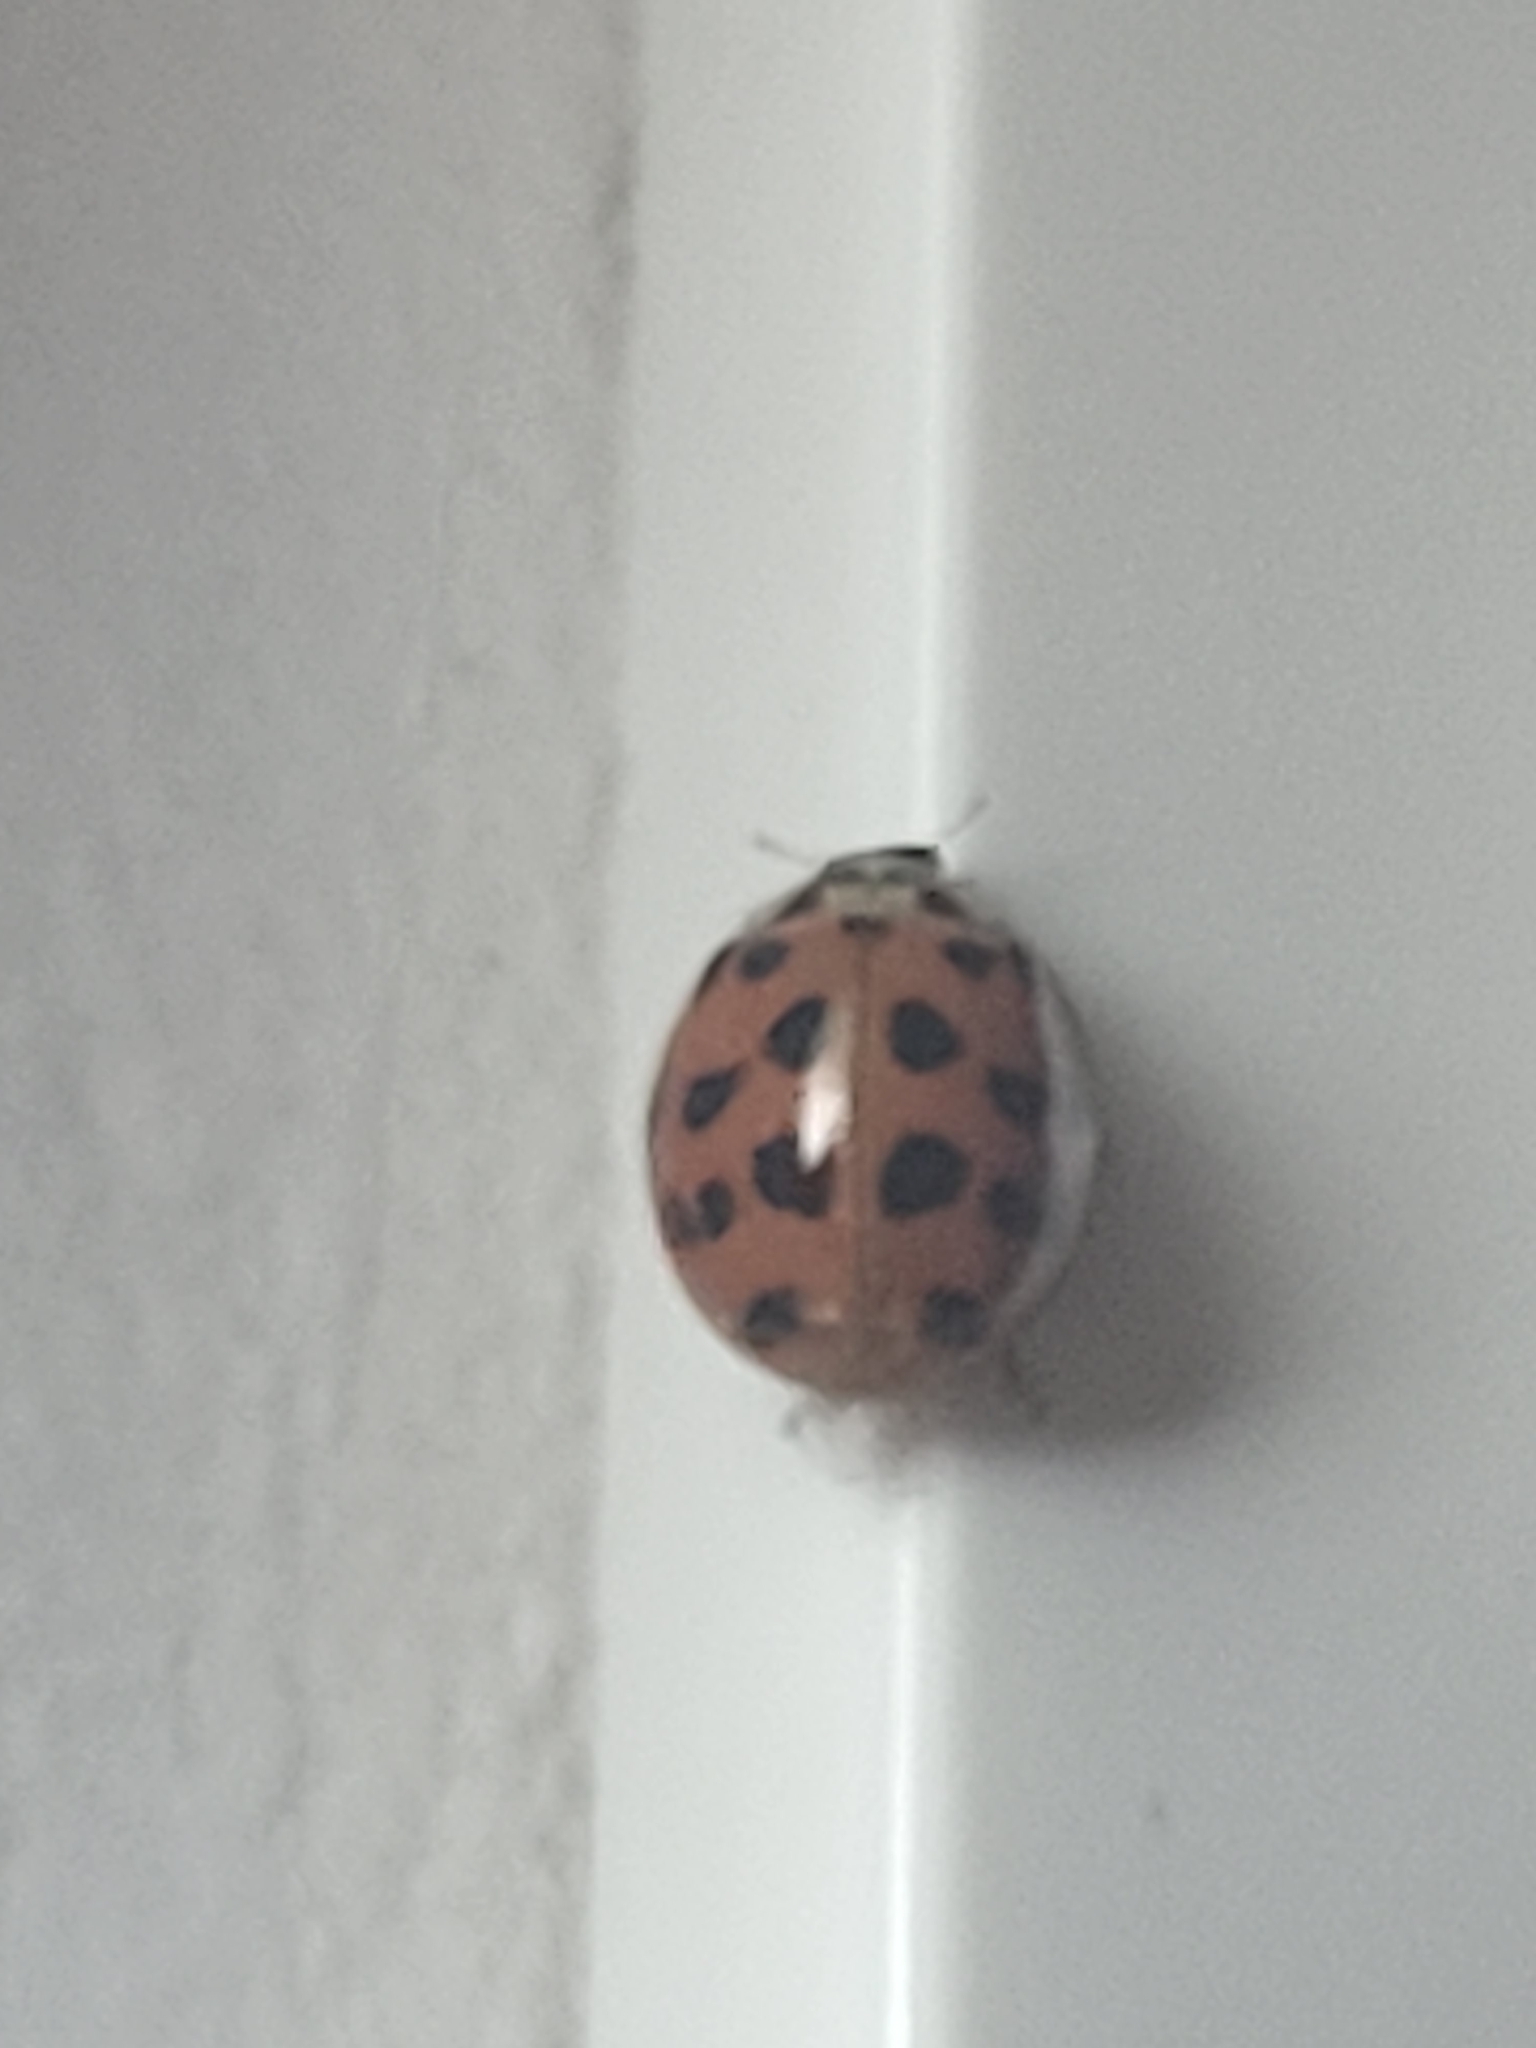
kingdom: Animalia
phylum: Arthropoda
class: Insecta
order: Coleoptera
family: Coccinellidae
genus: Harmonia
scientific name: Harmonia axyridis
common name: Harlequin ladybird
